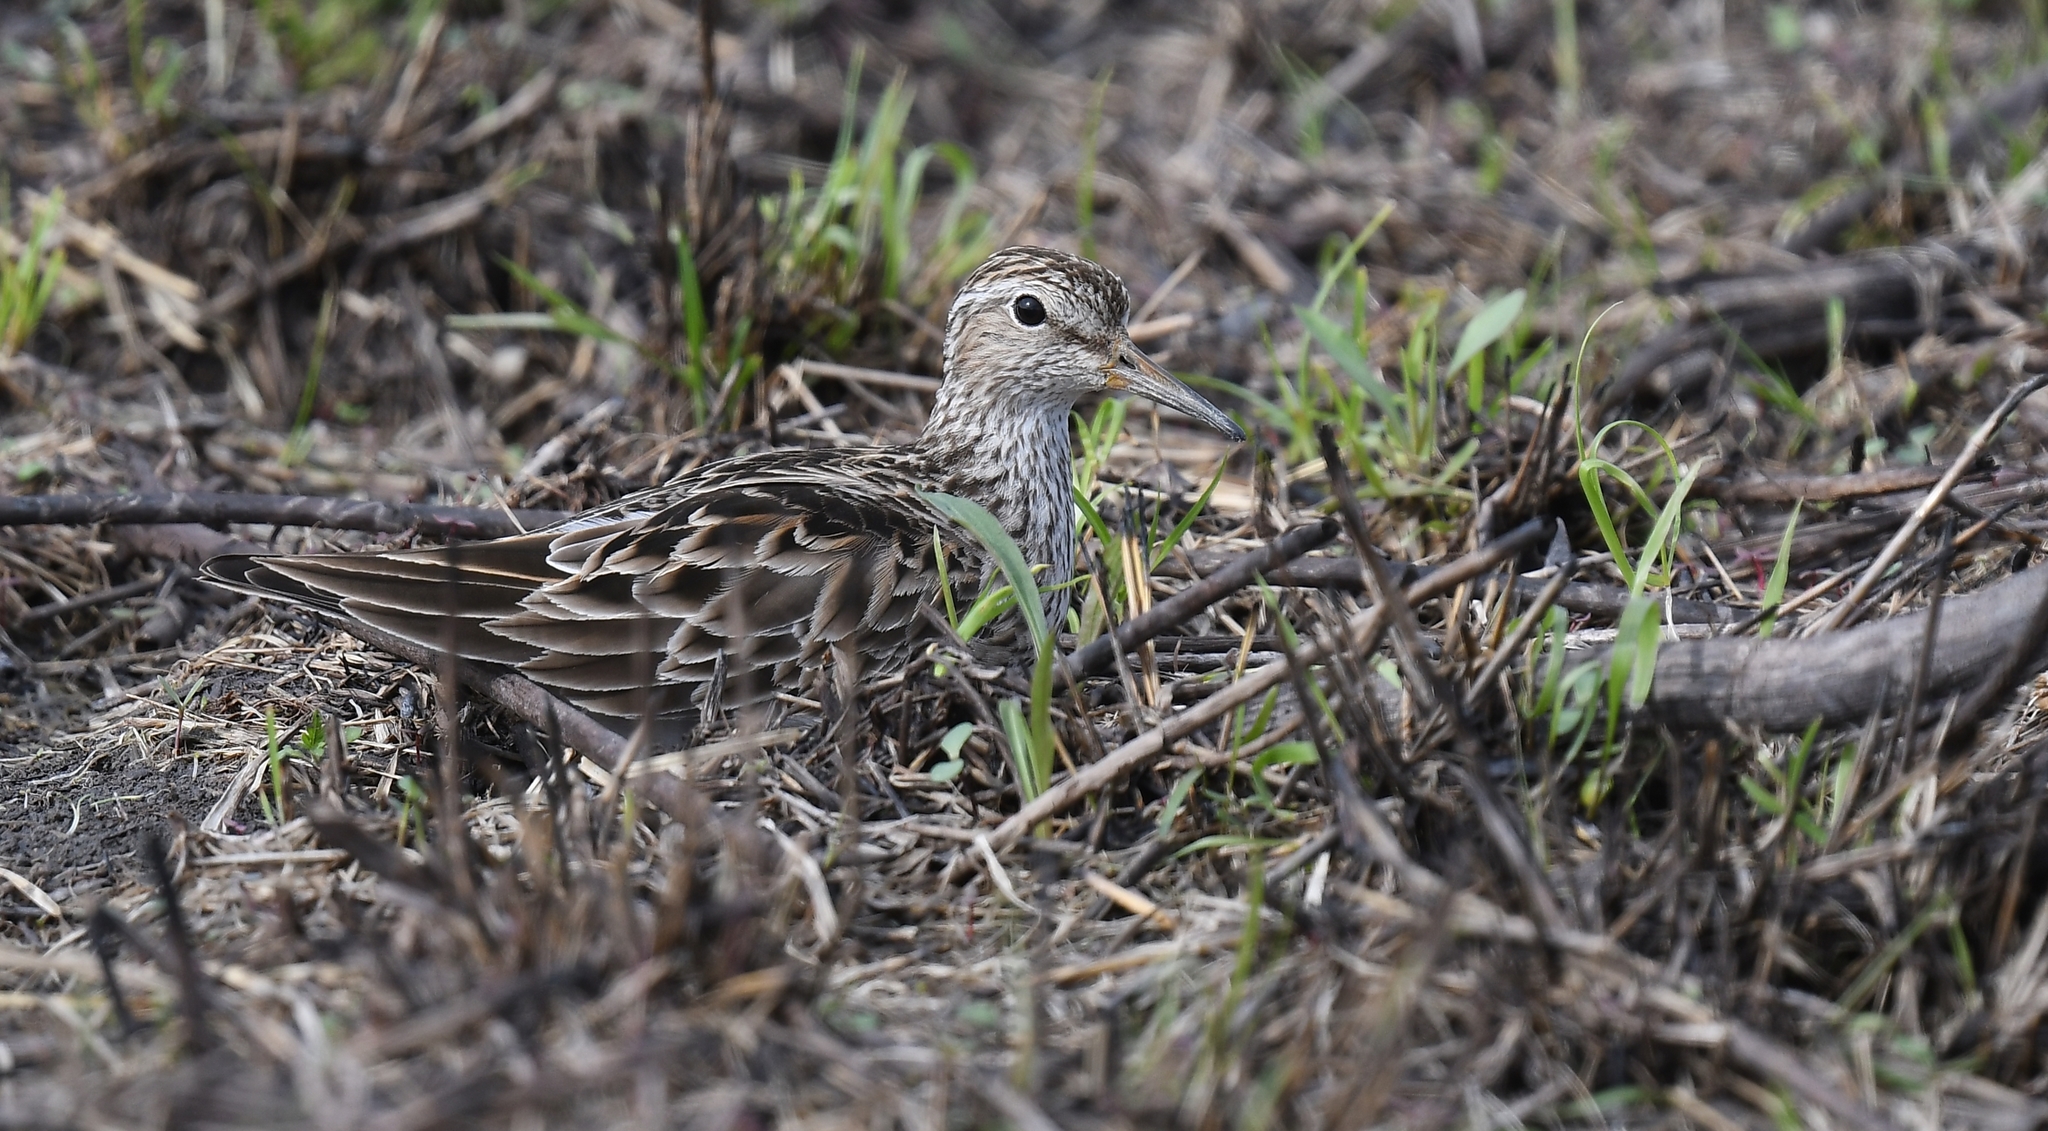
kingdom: Animalia
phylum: Chordata
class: Aves
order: Charadriiformes
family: Scolopacidae
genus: Calidris
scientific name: Calidris melanotos
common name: Pectoral sandpiper
